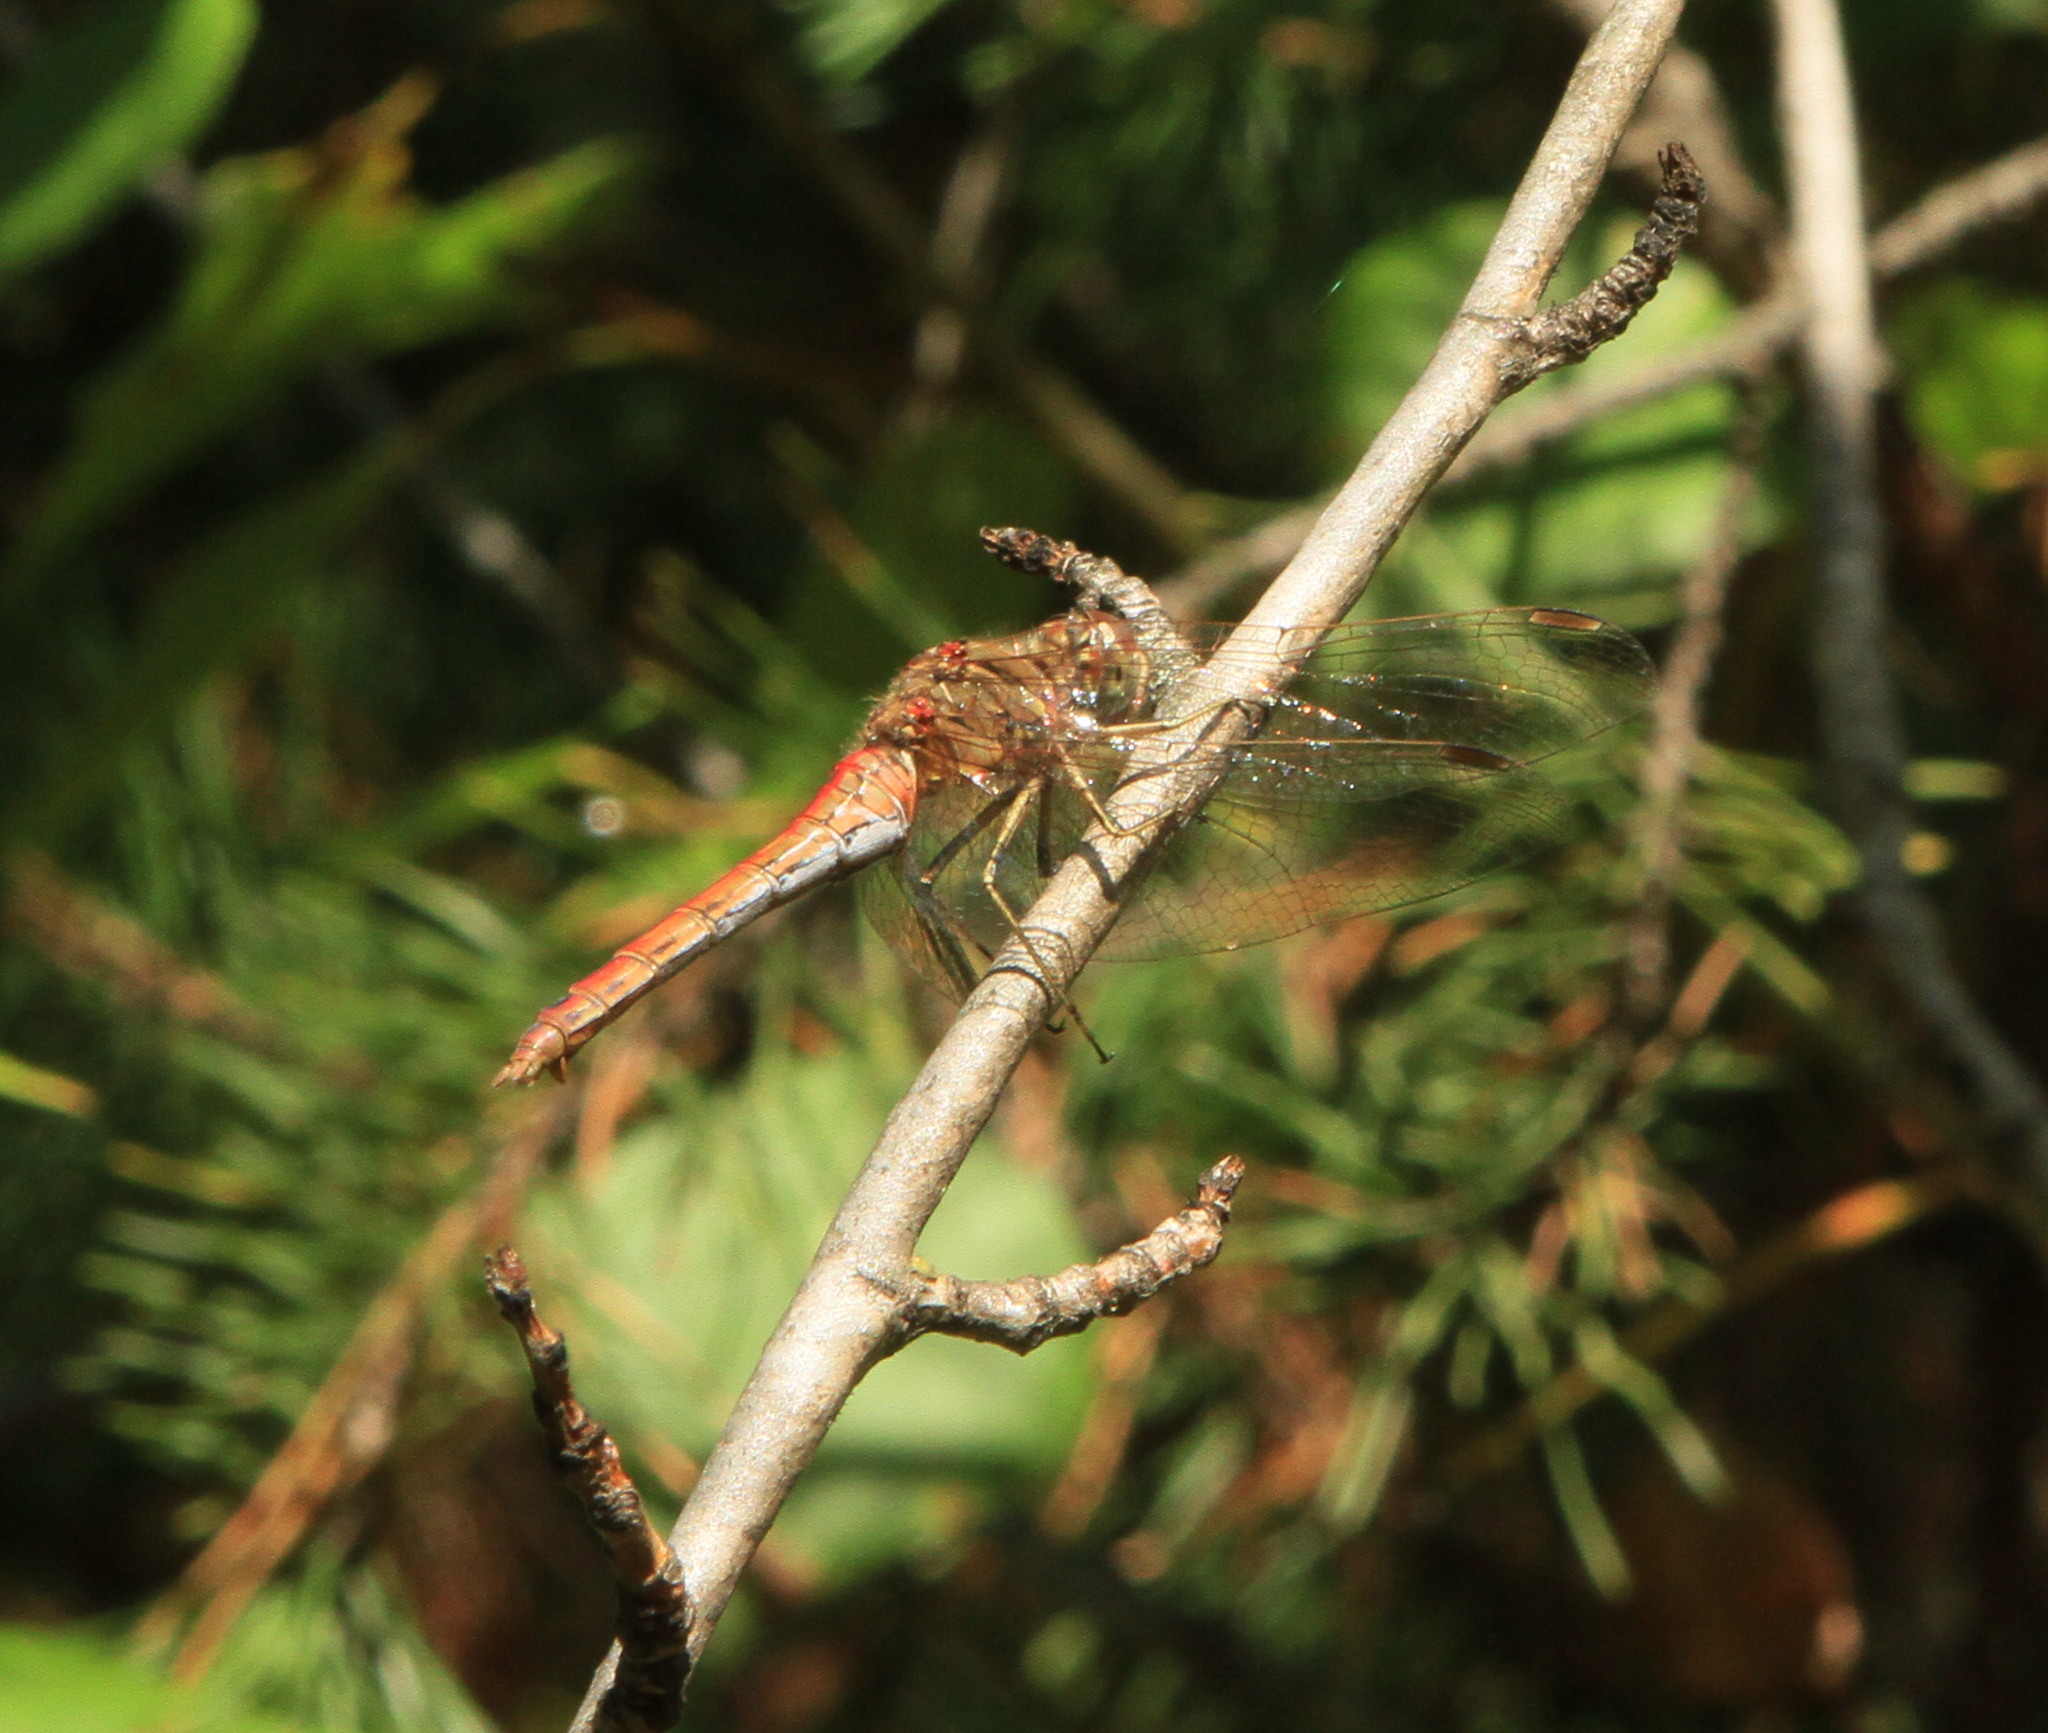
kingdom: Animalia
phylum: Arthropoda
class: Insecta
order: Odonata
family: Libellulidae
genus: Sympetrum
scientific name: Sympetrum vulgatum
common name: Vagrant darter
